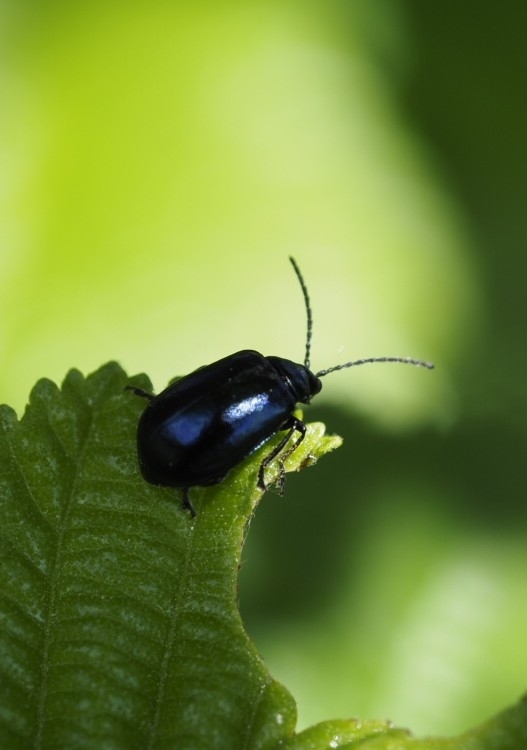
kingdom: Animalia
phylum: Arthropoda
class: Insecta
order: Coleoptera
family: Chrysomelidae
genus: Agelastica
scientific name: Agelastica alni
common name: Alder leaf beetle
